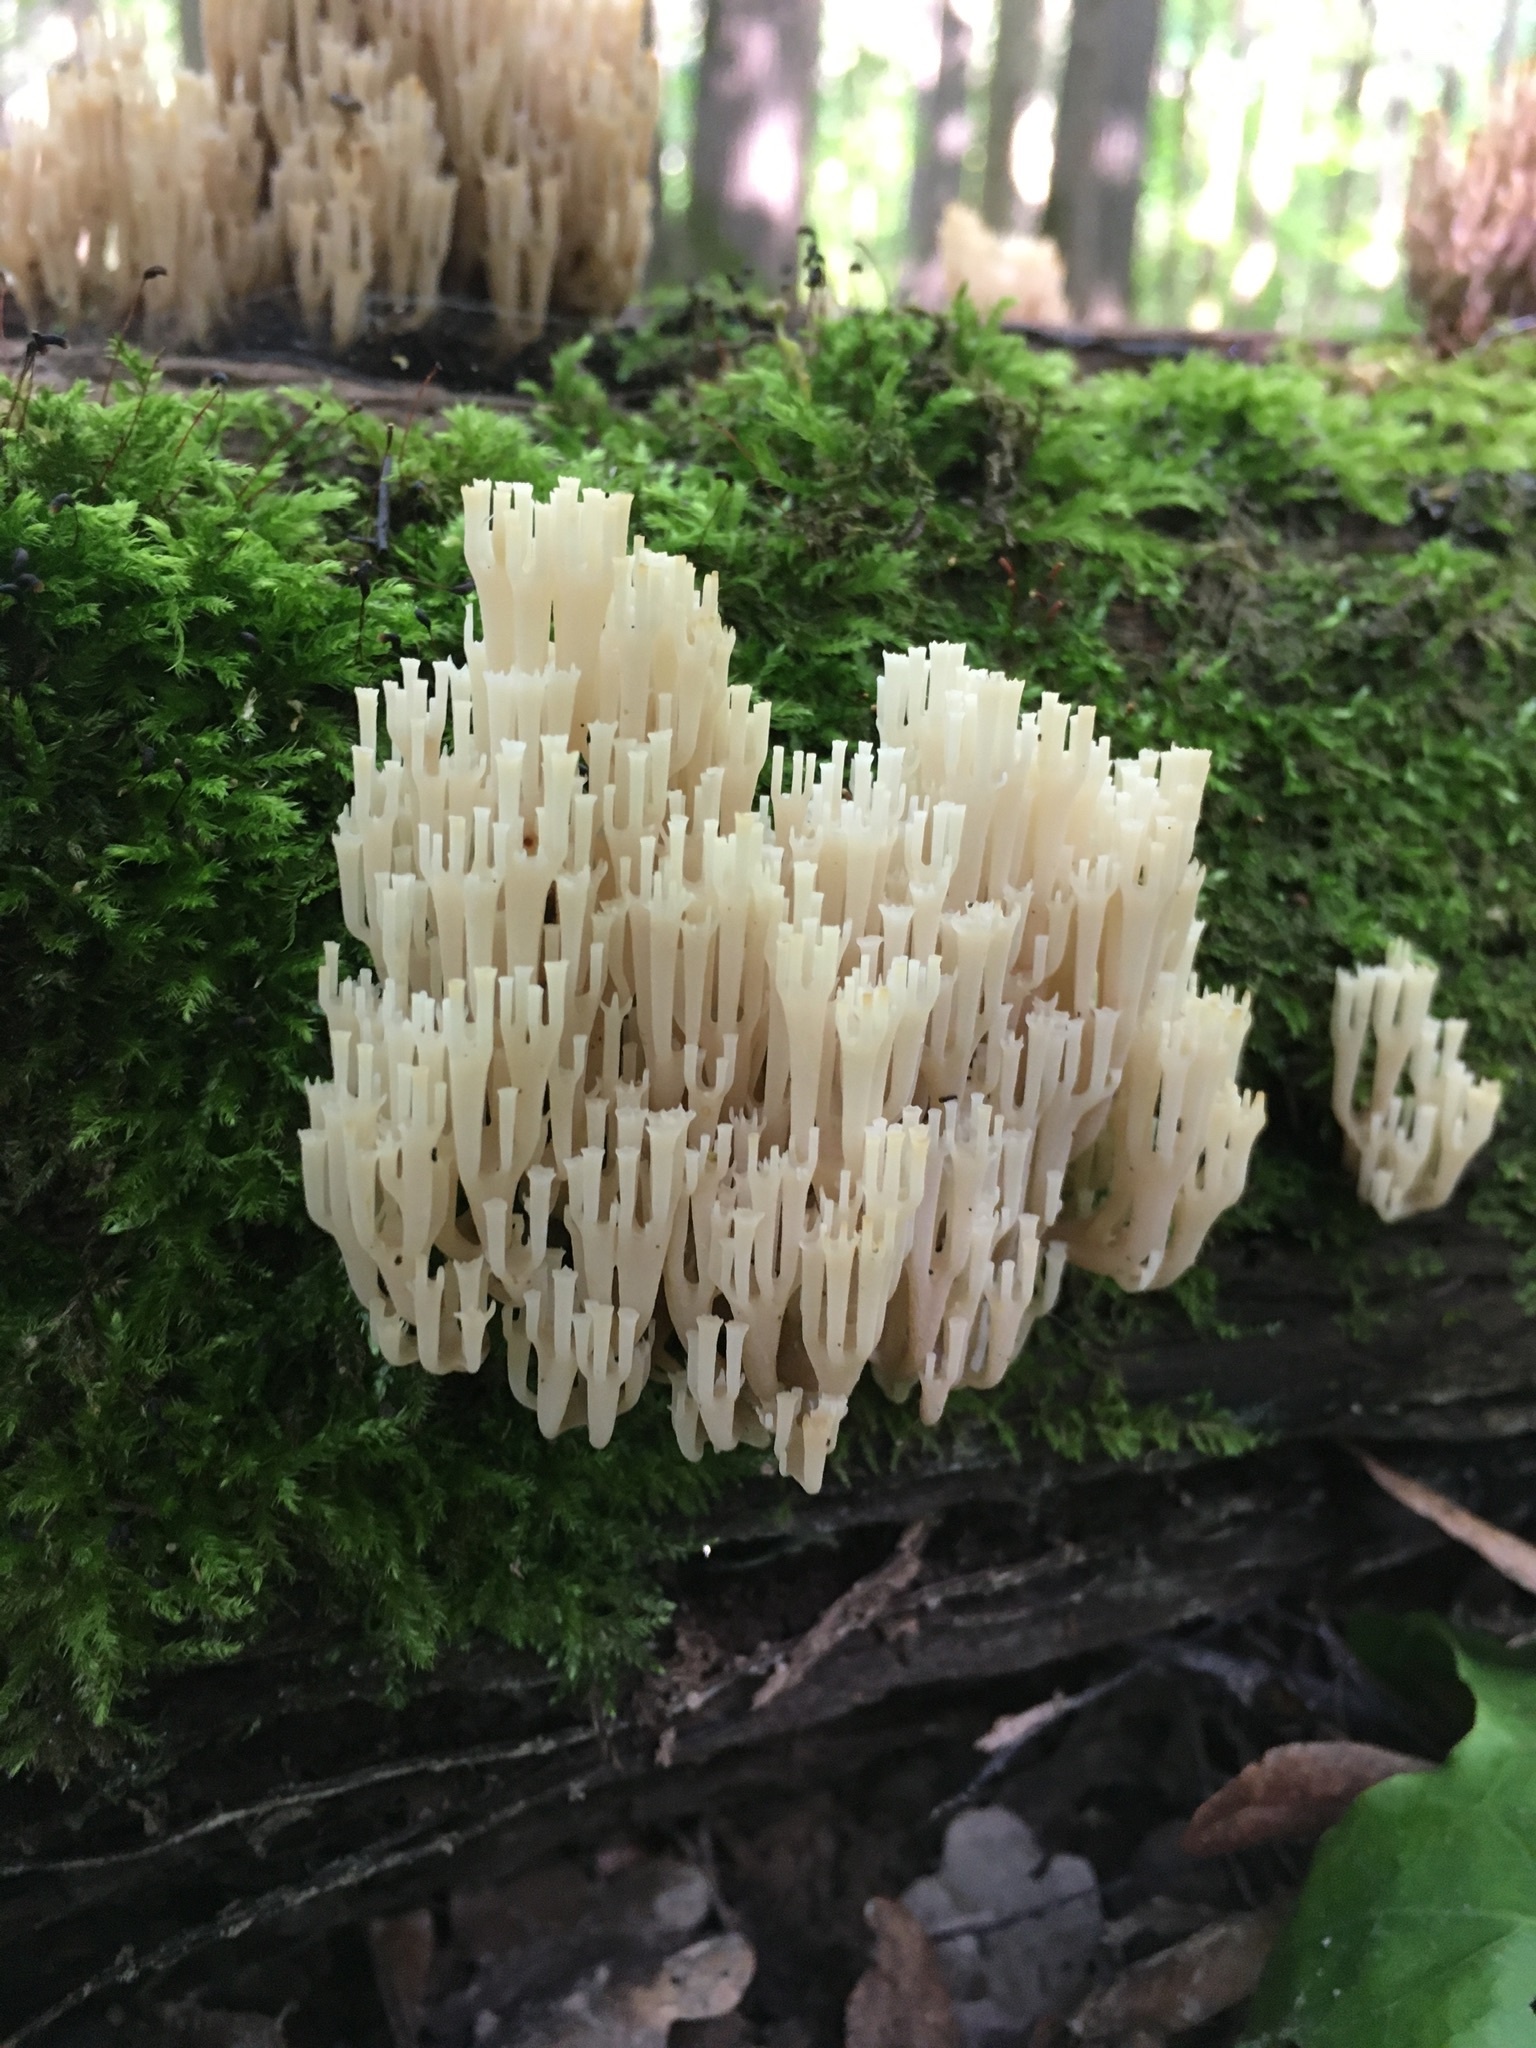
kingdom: Fungi
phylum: Basidiomycota
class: Agaricomycetes
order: Russulales
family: Auriscalpiaceae
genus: Artomyces
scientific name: Artomyces pyxidatus
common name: Crown-tipped coral fungus
